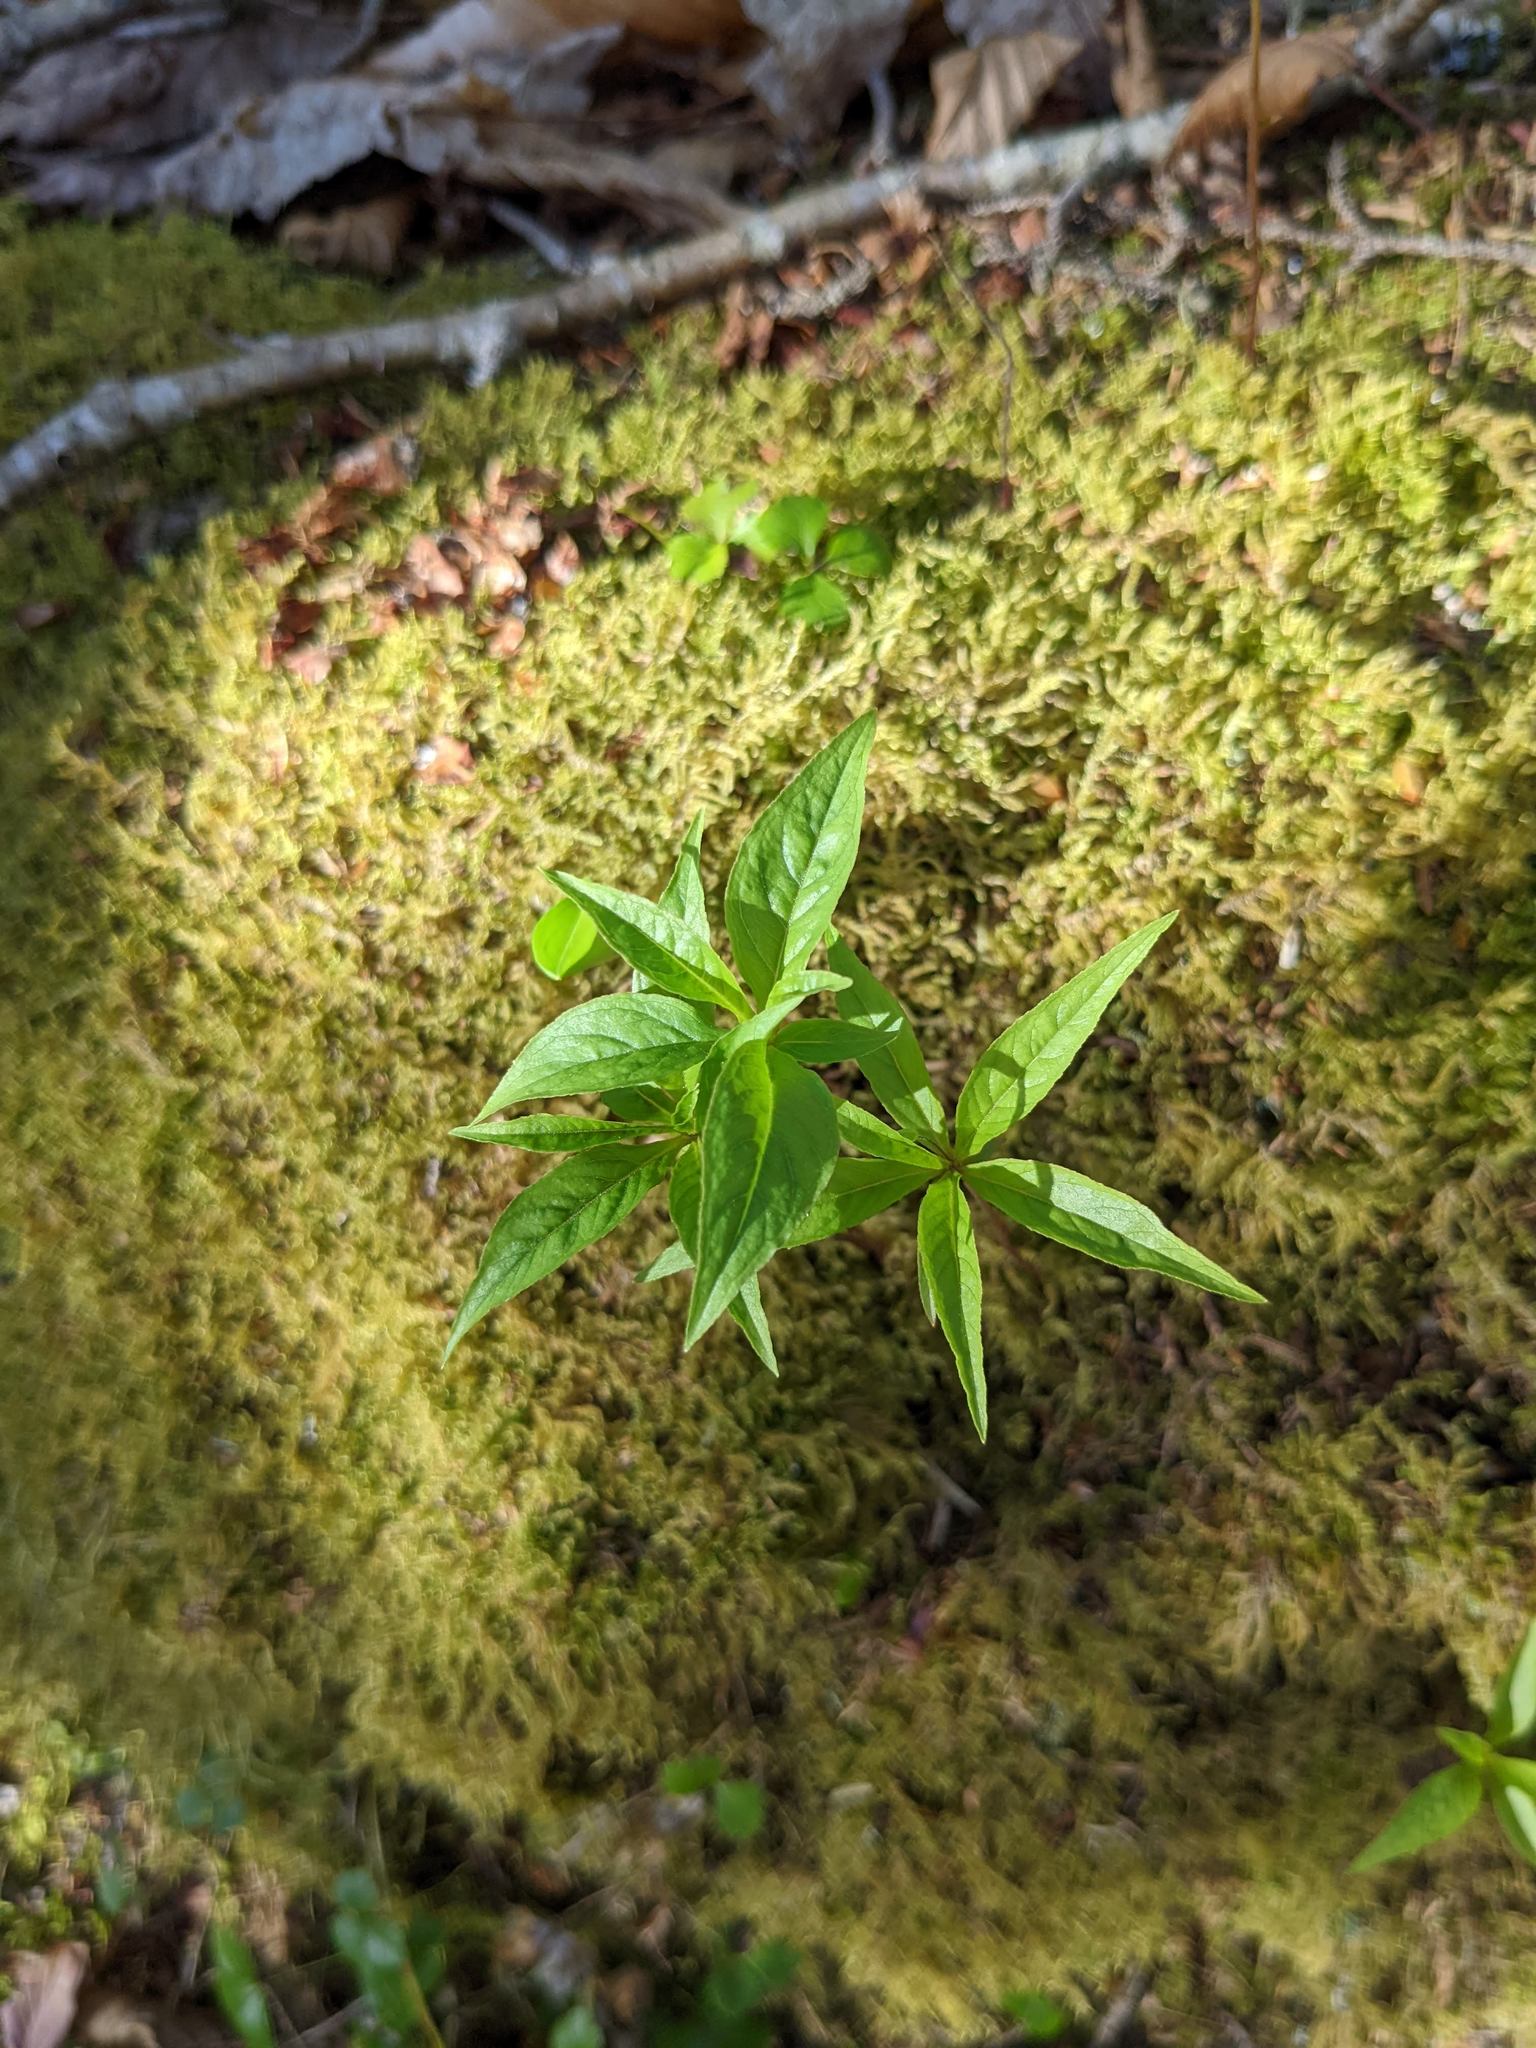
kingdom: Plantae
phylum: Tracheophyta
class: Magnoliopsida
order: Ericales
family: Primulaceae
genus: Lysimachia
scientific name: Lysimachia borealis
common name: American starflower
